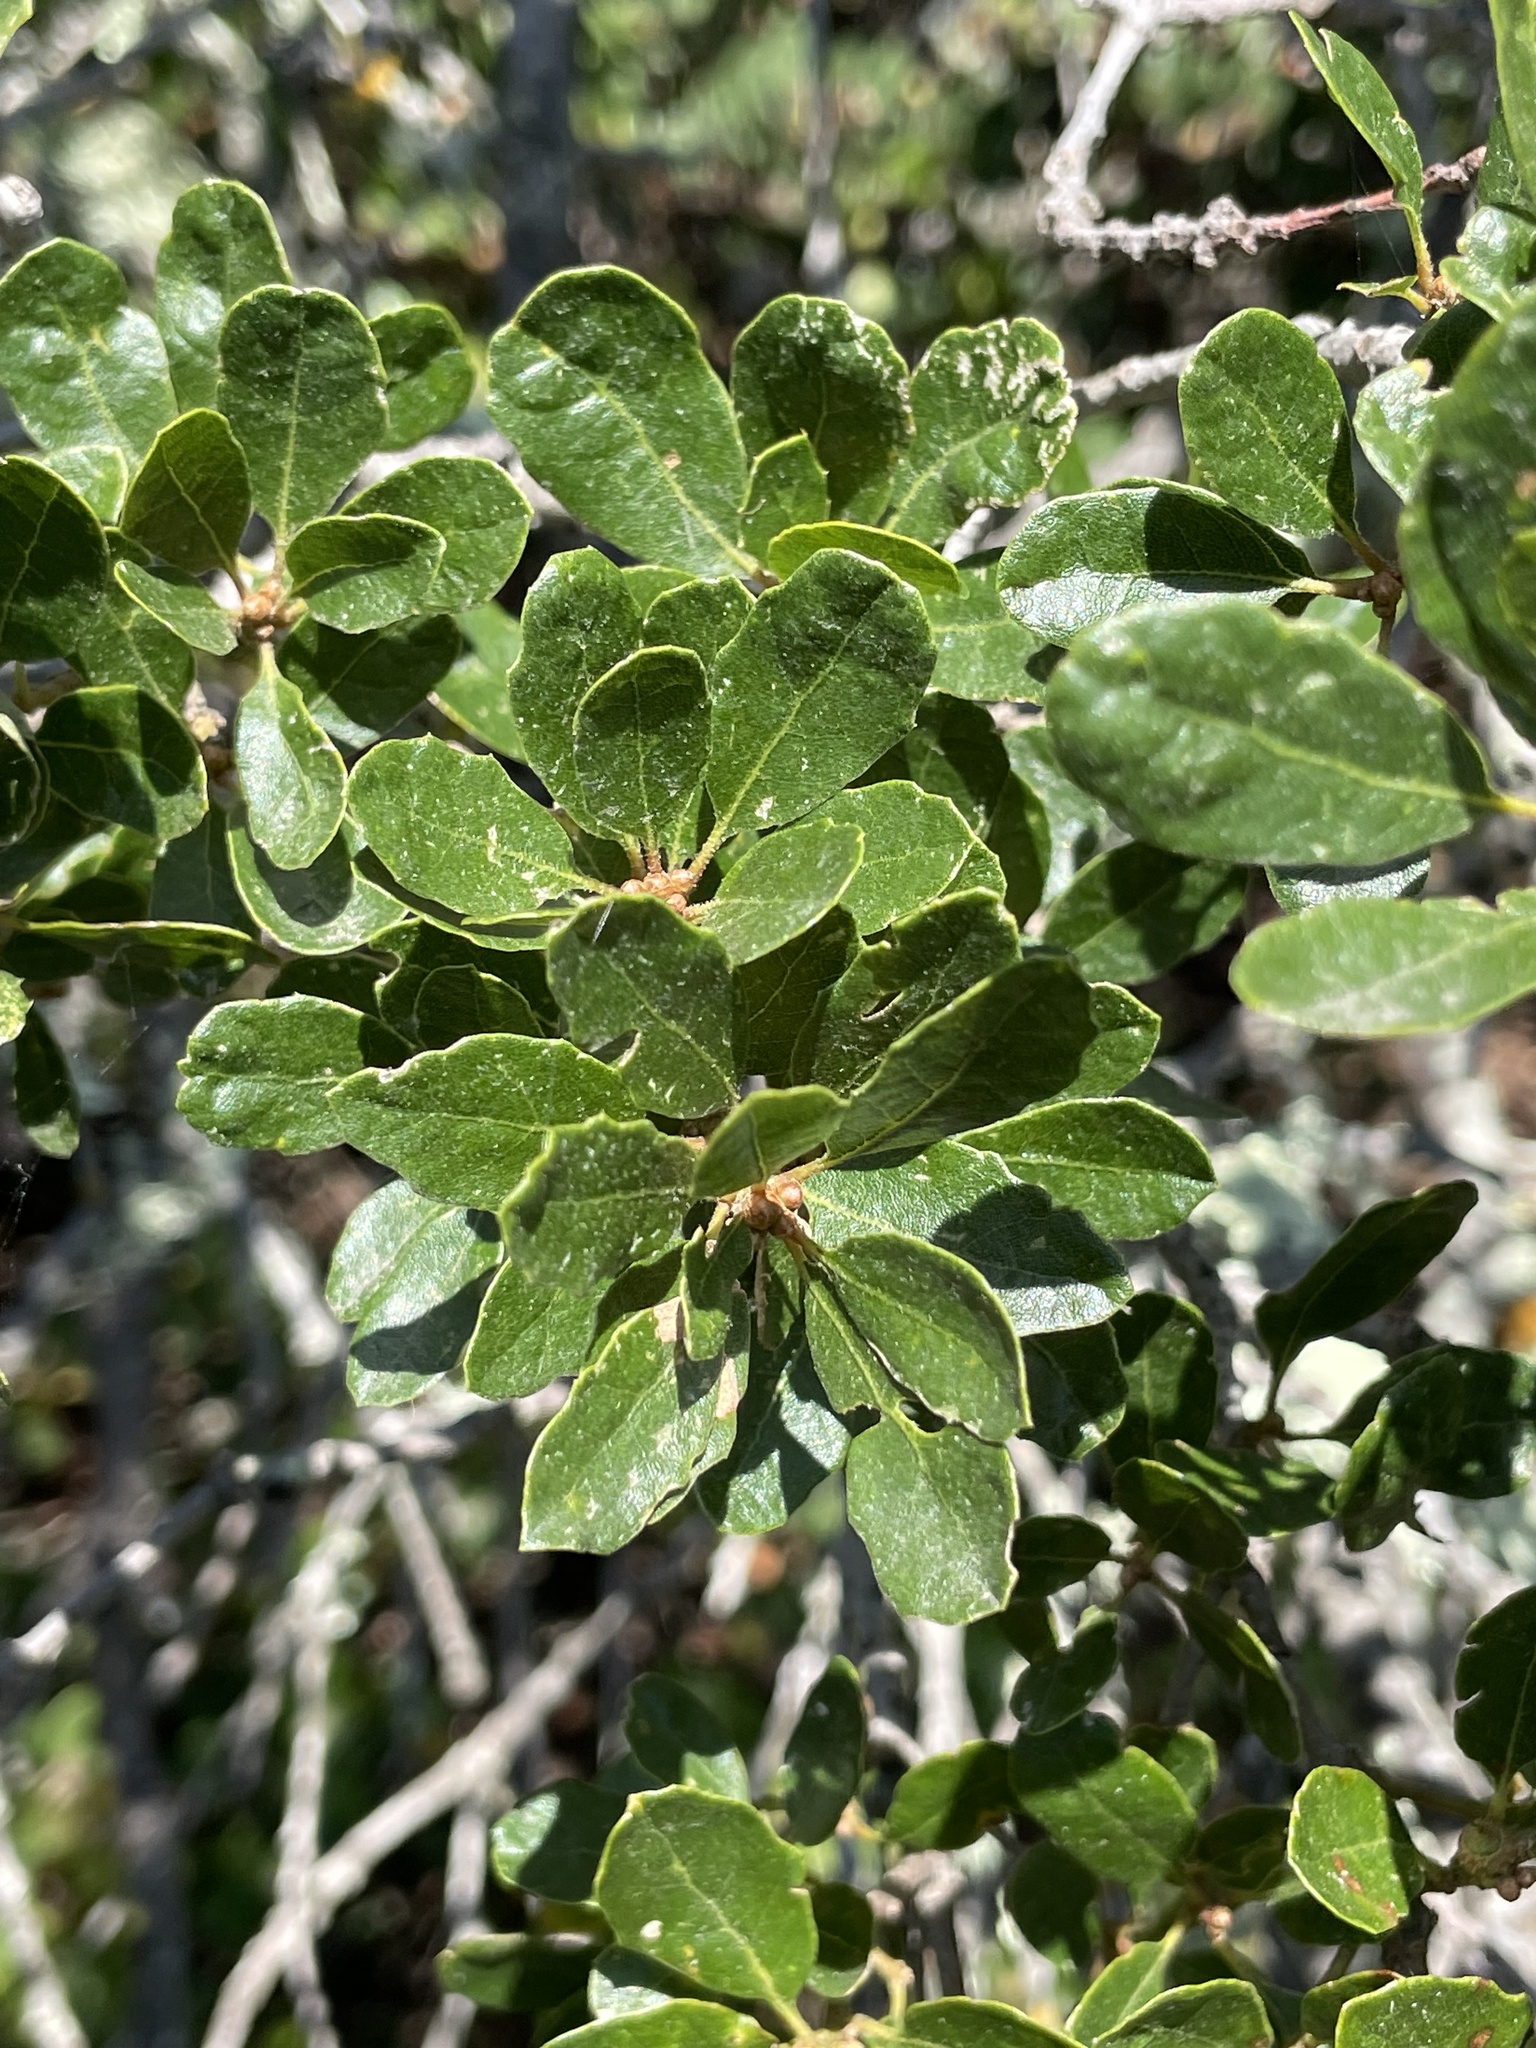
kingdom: Plantae
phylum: Tracheophyta
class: Magnoliopsida
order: Fagales
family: Fagaceae
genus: Quercus
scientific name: Quercus pacifica
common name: Channel island scrub oak
